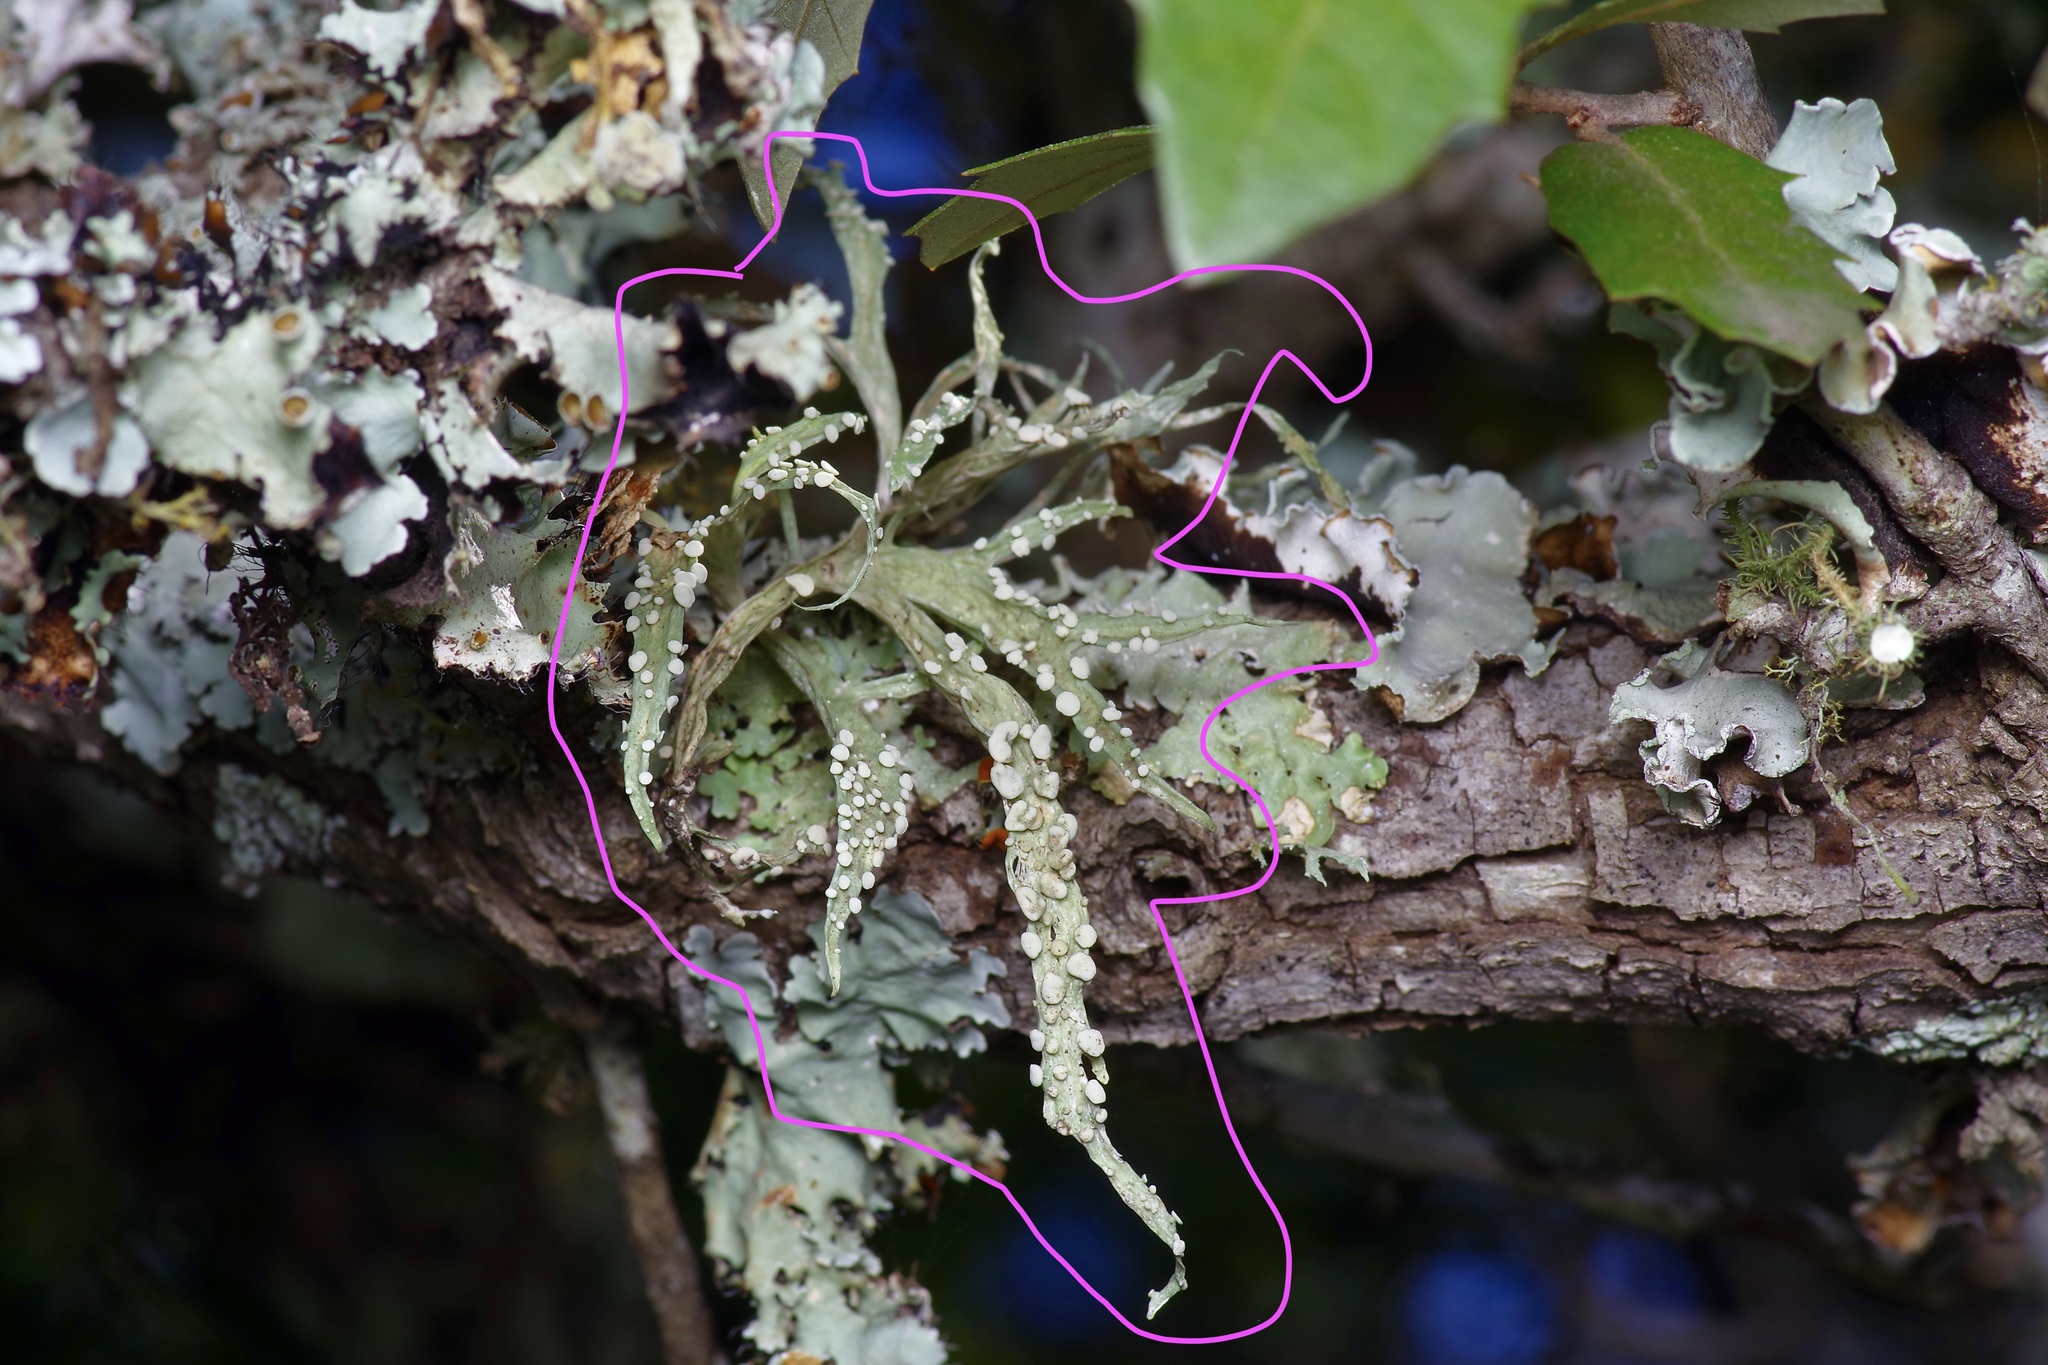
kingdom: Fungi
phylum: Ascomycota
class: Lecanoromycetes
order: Lecanorales
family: Ramalinaceae
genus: Ramalina
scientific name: Ramalina celastri
